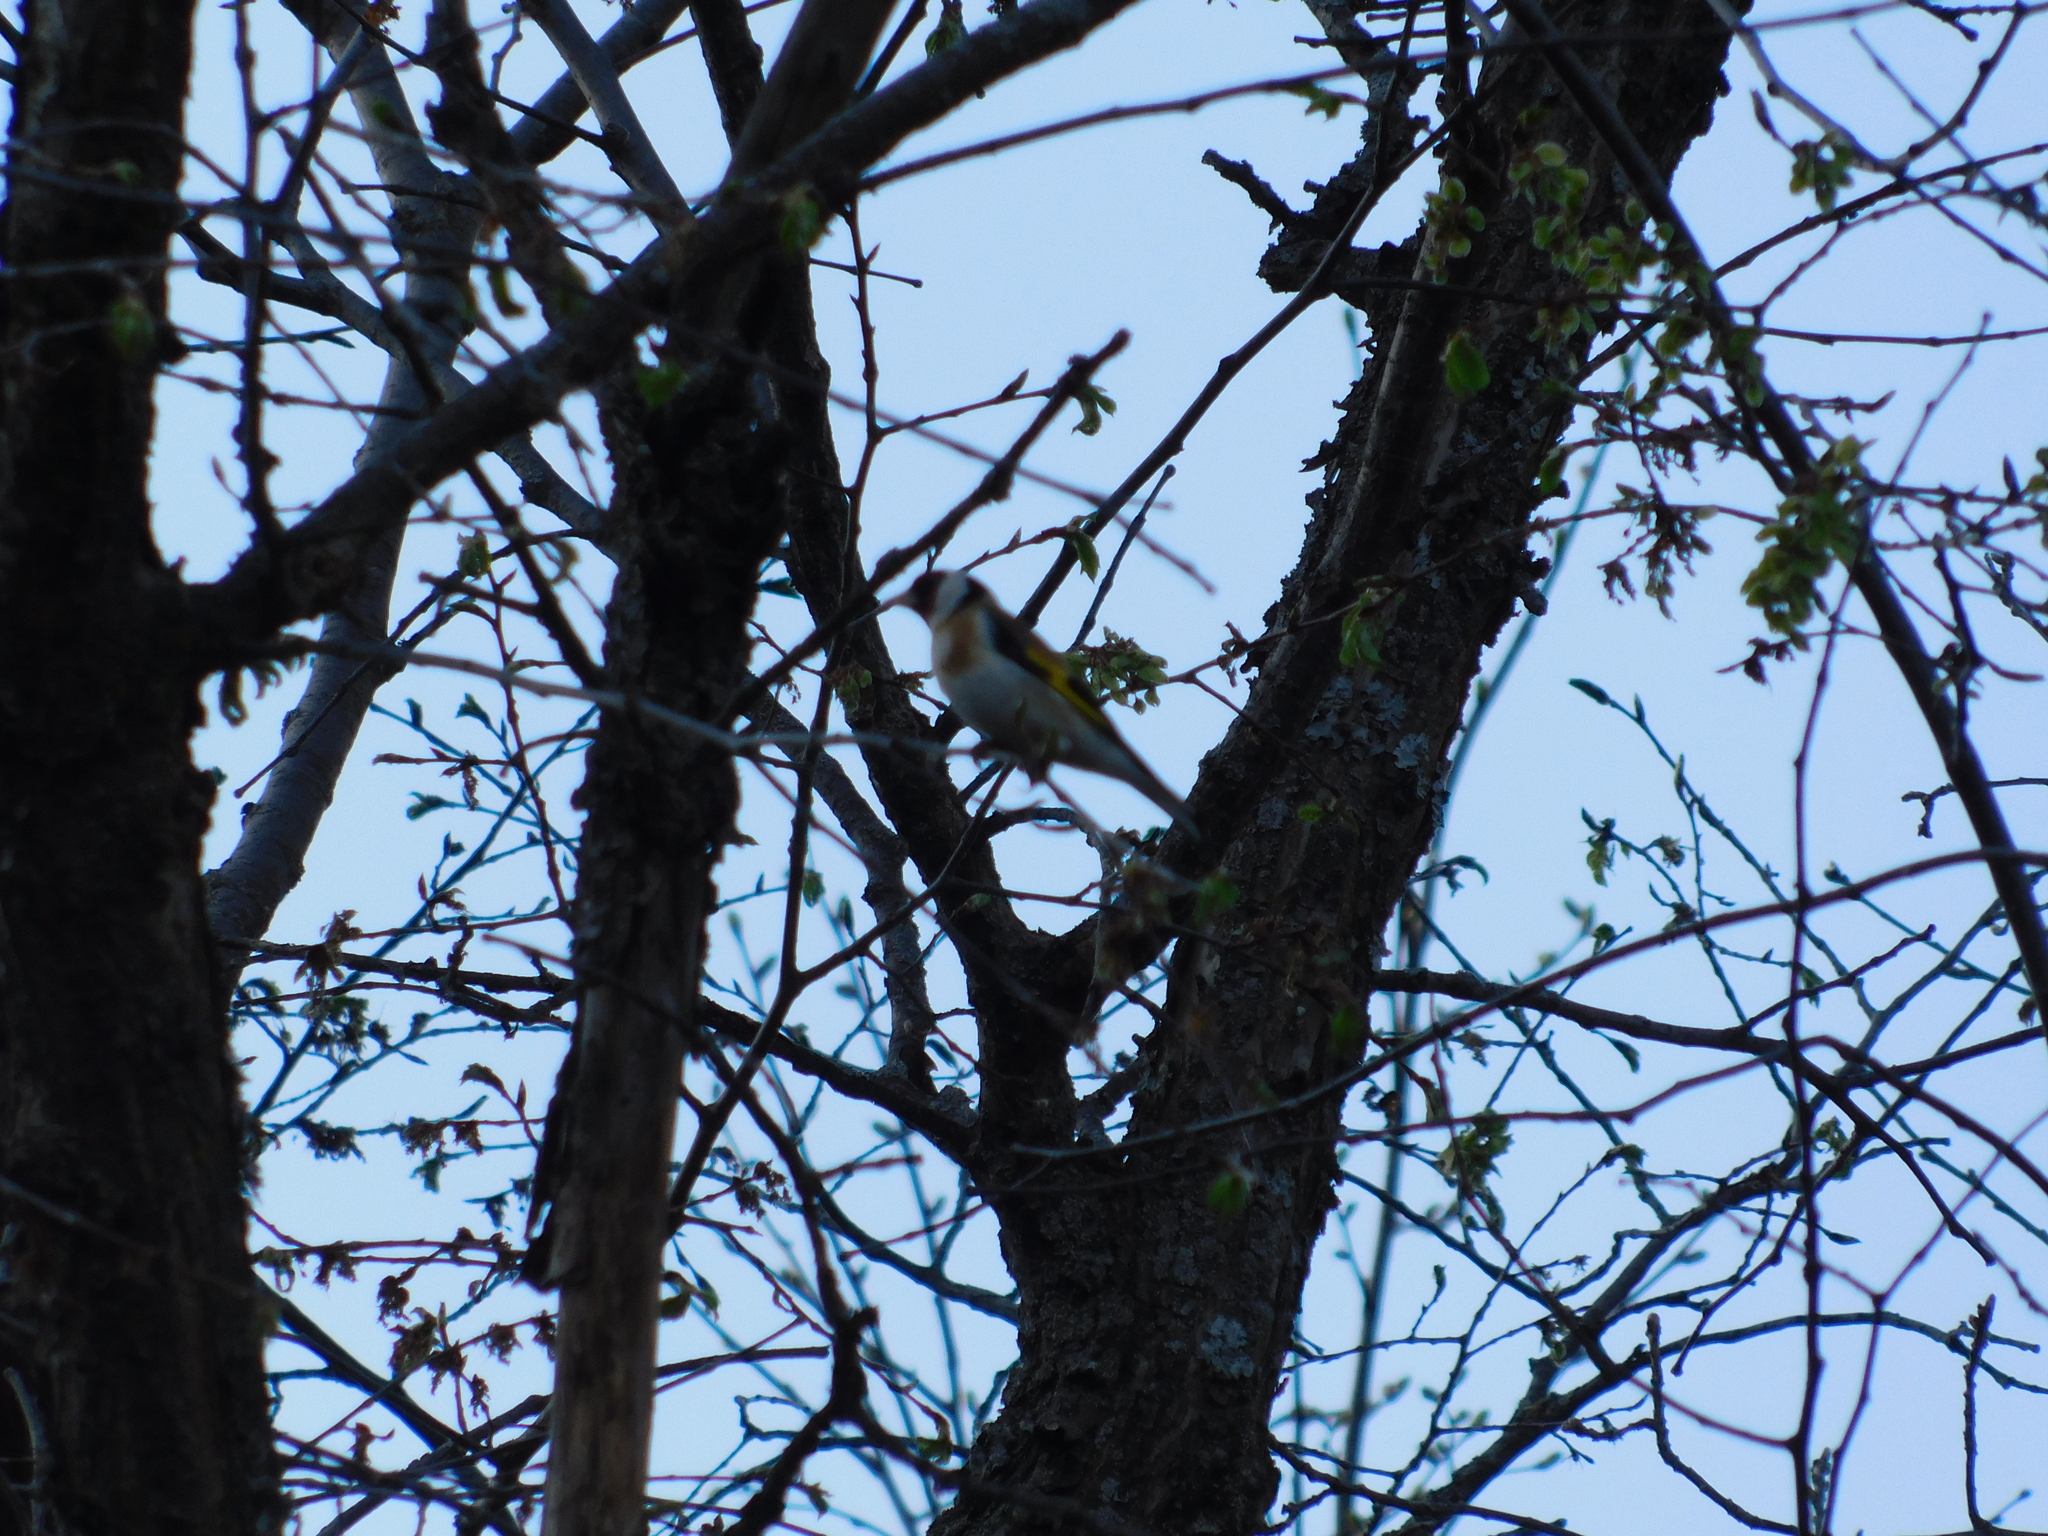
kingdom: Animalia
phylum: Chordata
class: Aves
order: Passeriformes
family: Fringillidae
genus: Carduelis
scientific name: Carduelis carduelis
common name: European goldfinch
